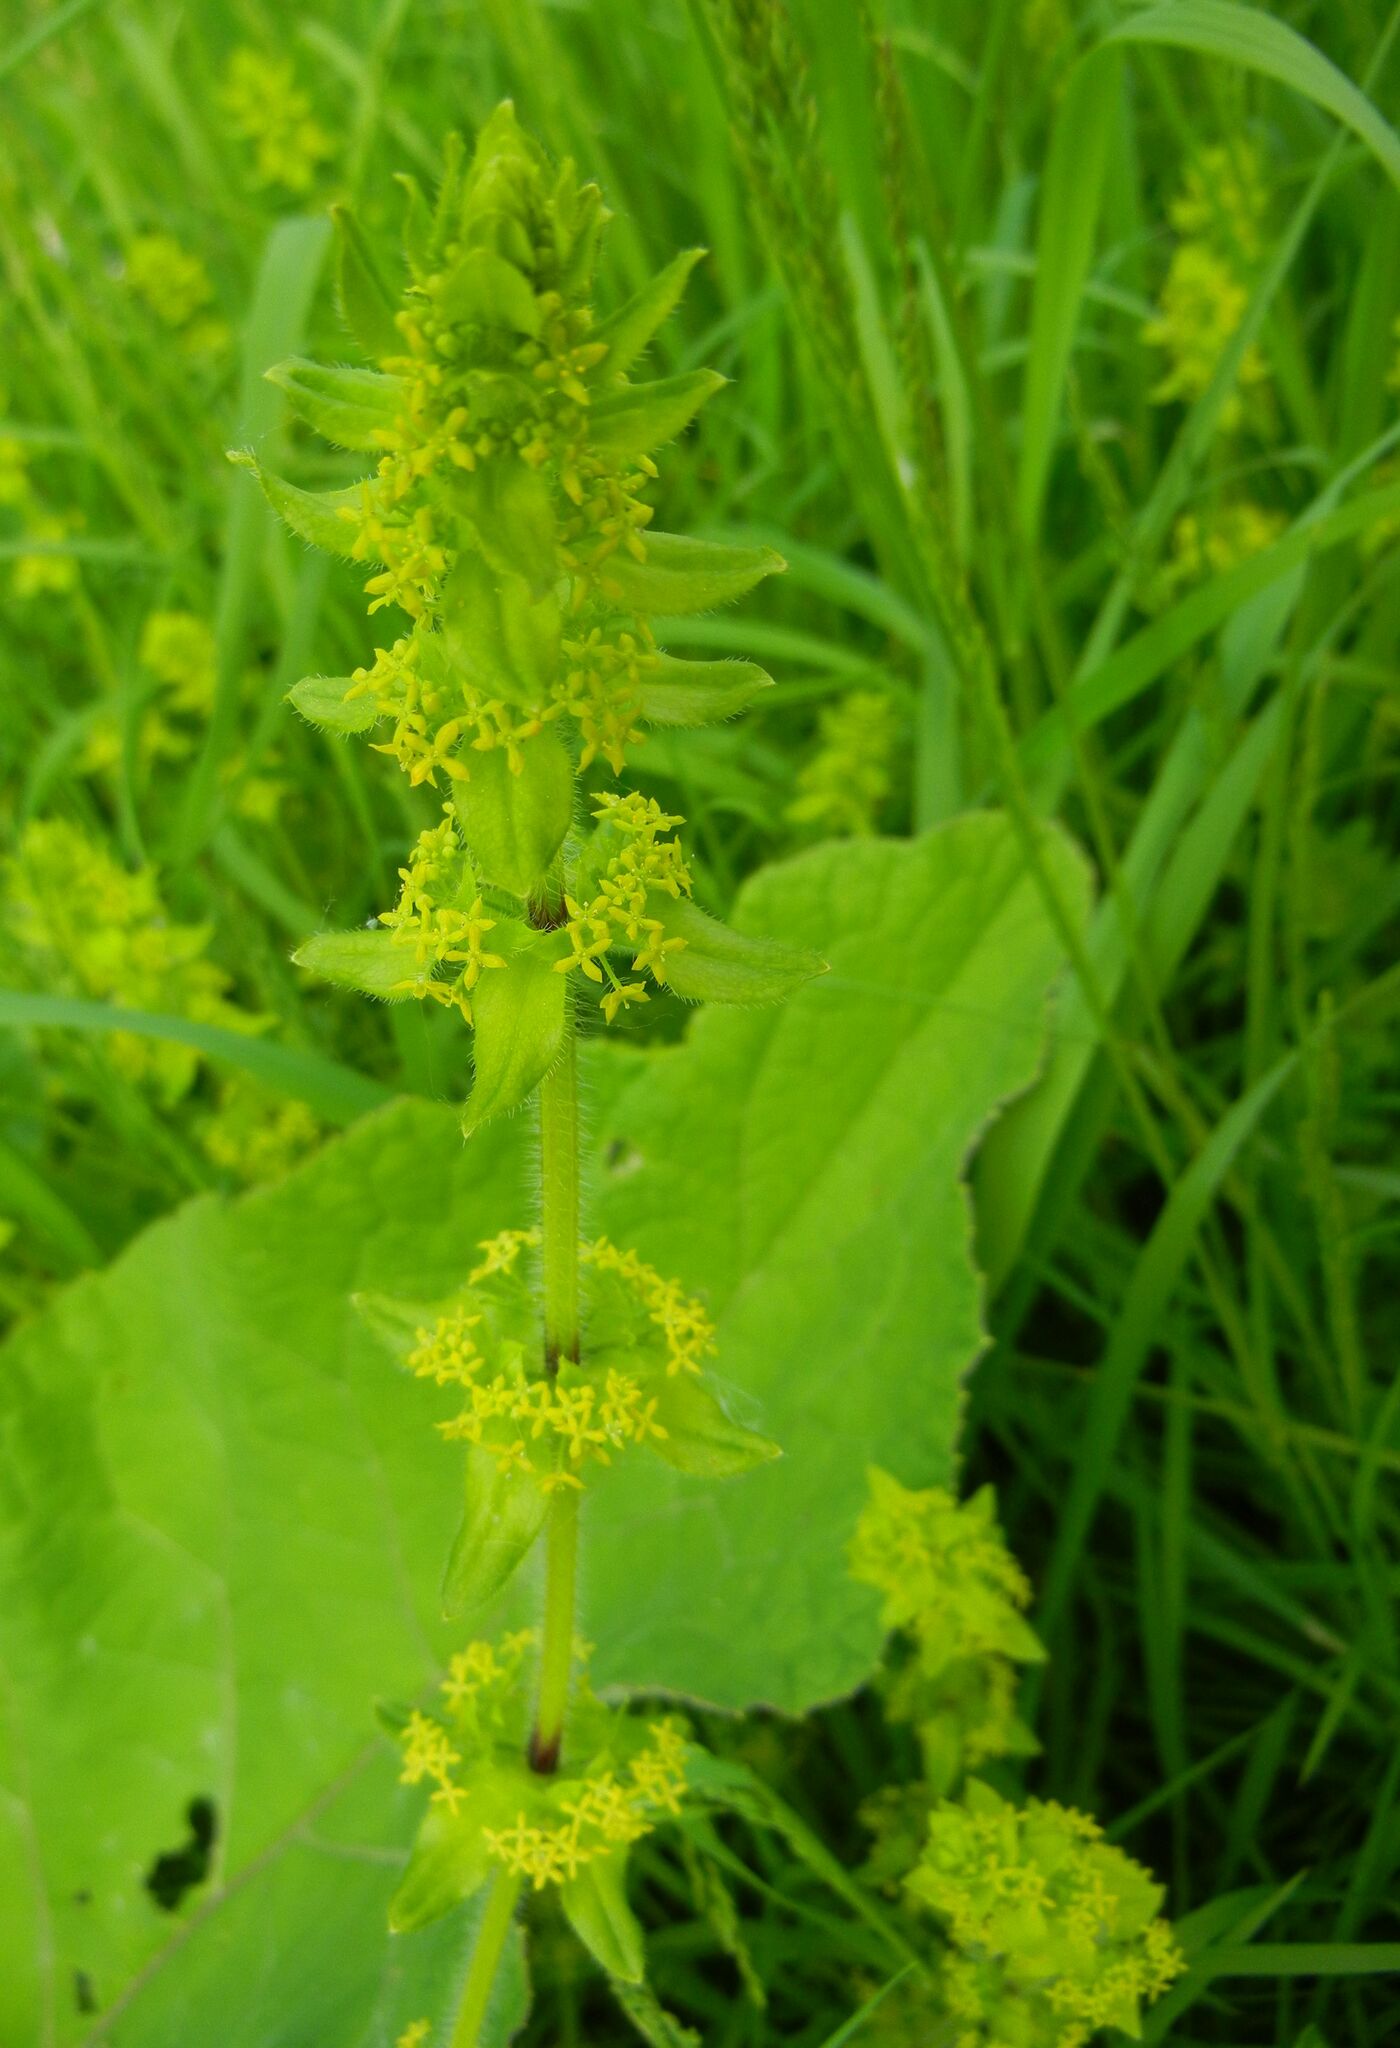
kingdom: Plantae
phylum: Tracheophyta
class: Magnoliopsida
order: Gentianales
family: Rubiaceae
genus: Cruciata
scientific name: Cruciata laevipes
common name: Crosswort
